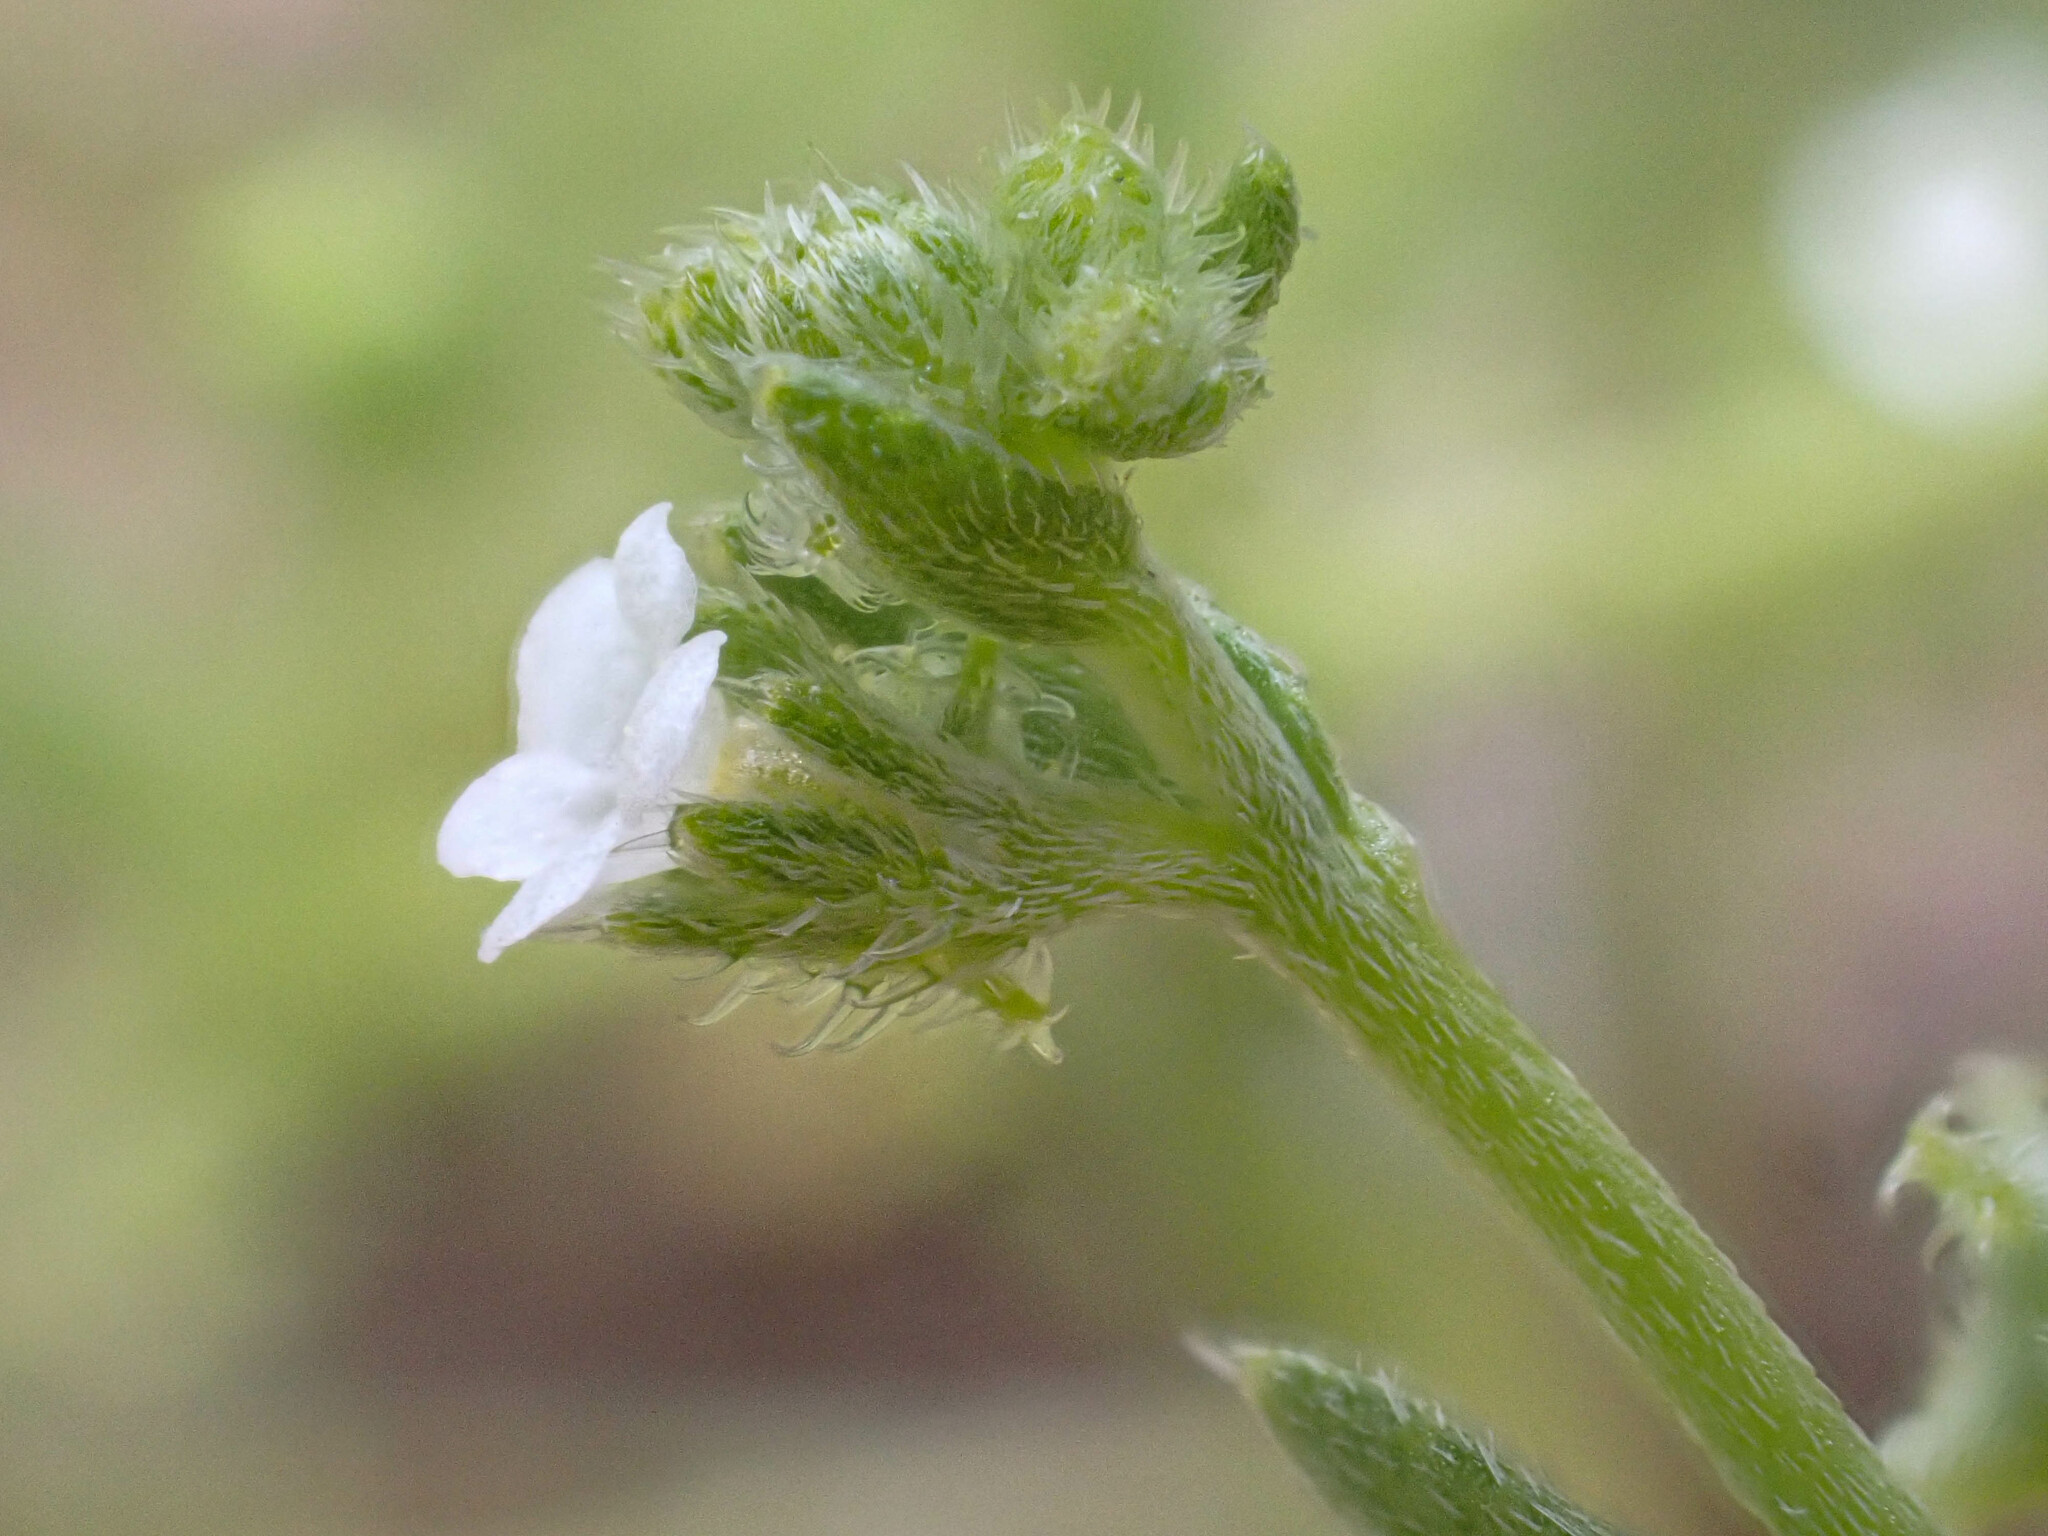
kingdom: Plantae
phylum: Tracheophyta
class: Magnoliopsida
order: Boraginales
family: Boraginaceae
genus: Harpagonella
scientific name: Harpagonella palmeri
